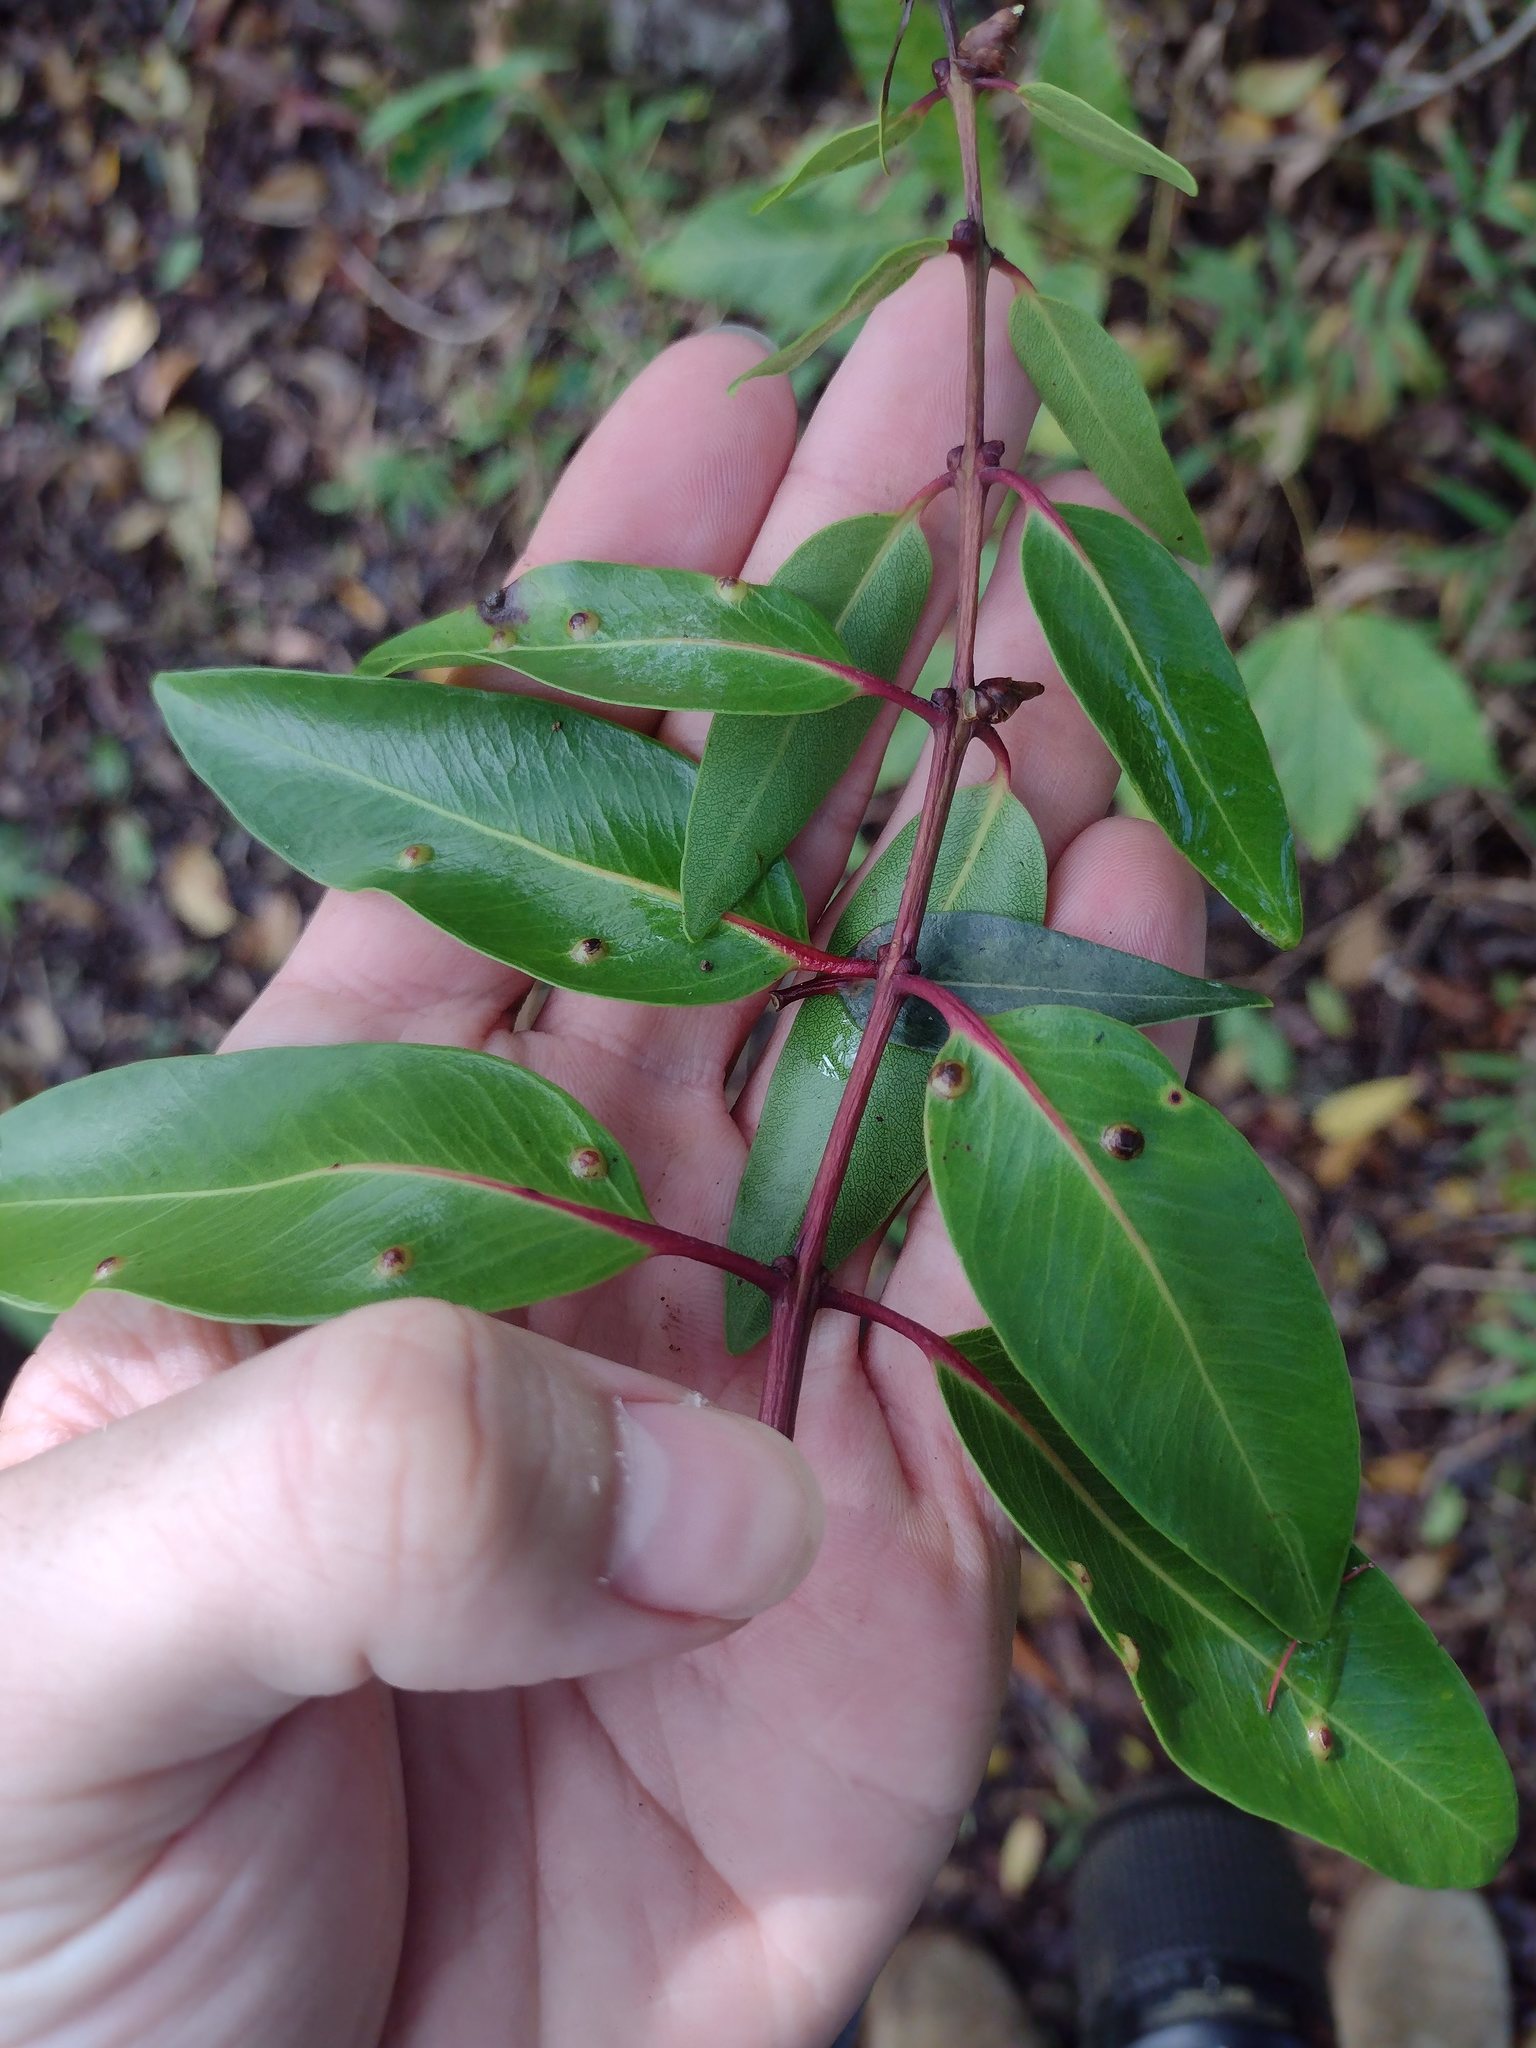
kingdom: Plantae
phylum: Tracheophyta
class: Magnoliopsida
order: Myrtales
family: Myrtaceae
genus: Metrosideros
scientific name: Metrosideros polymorpha
